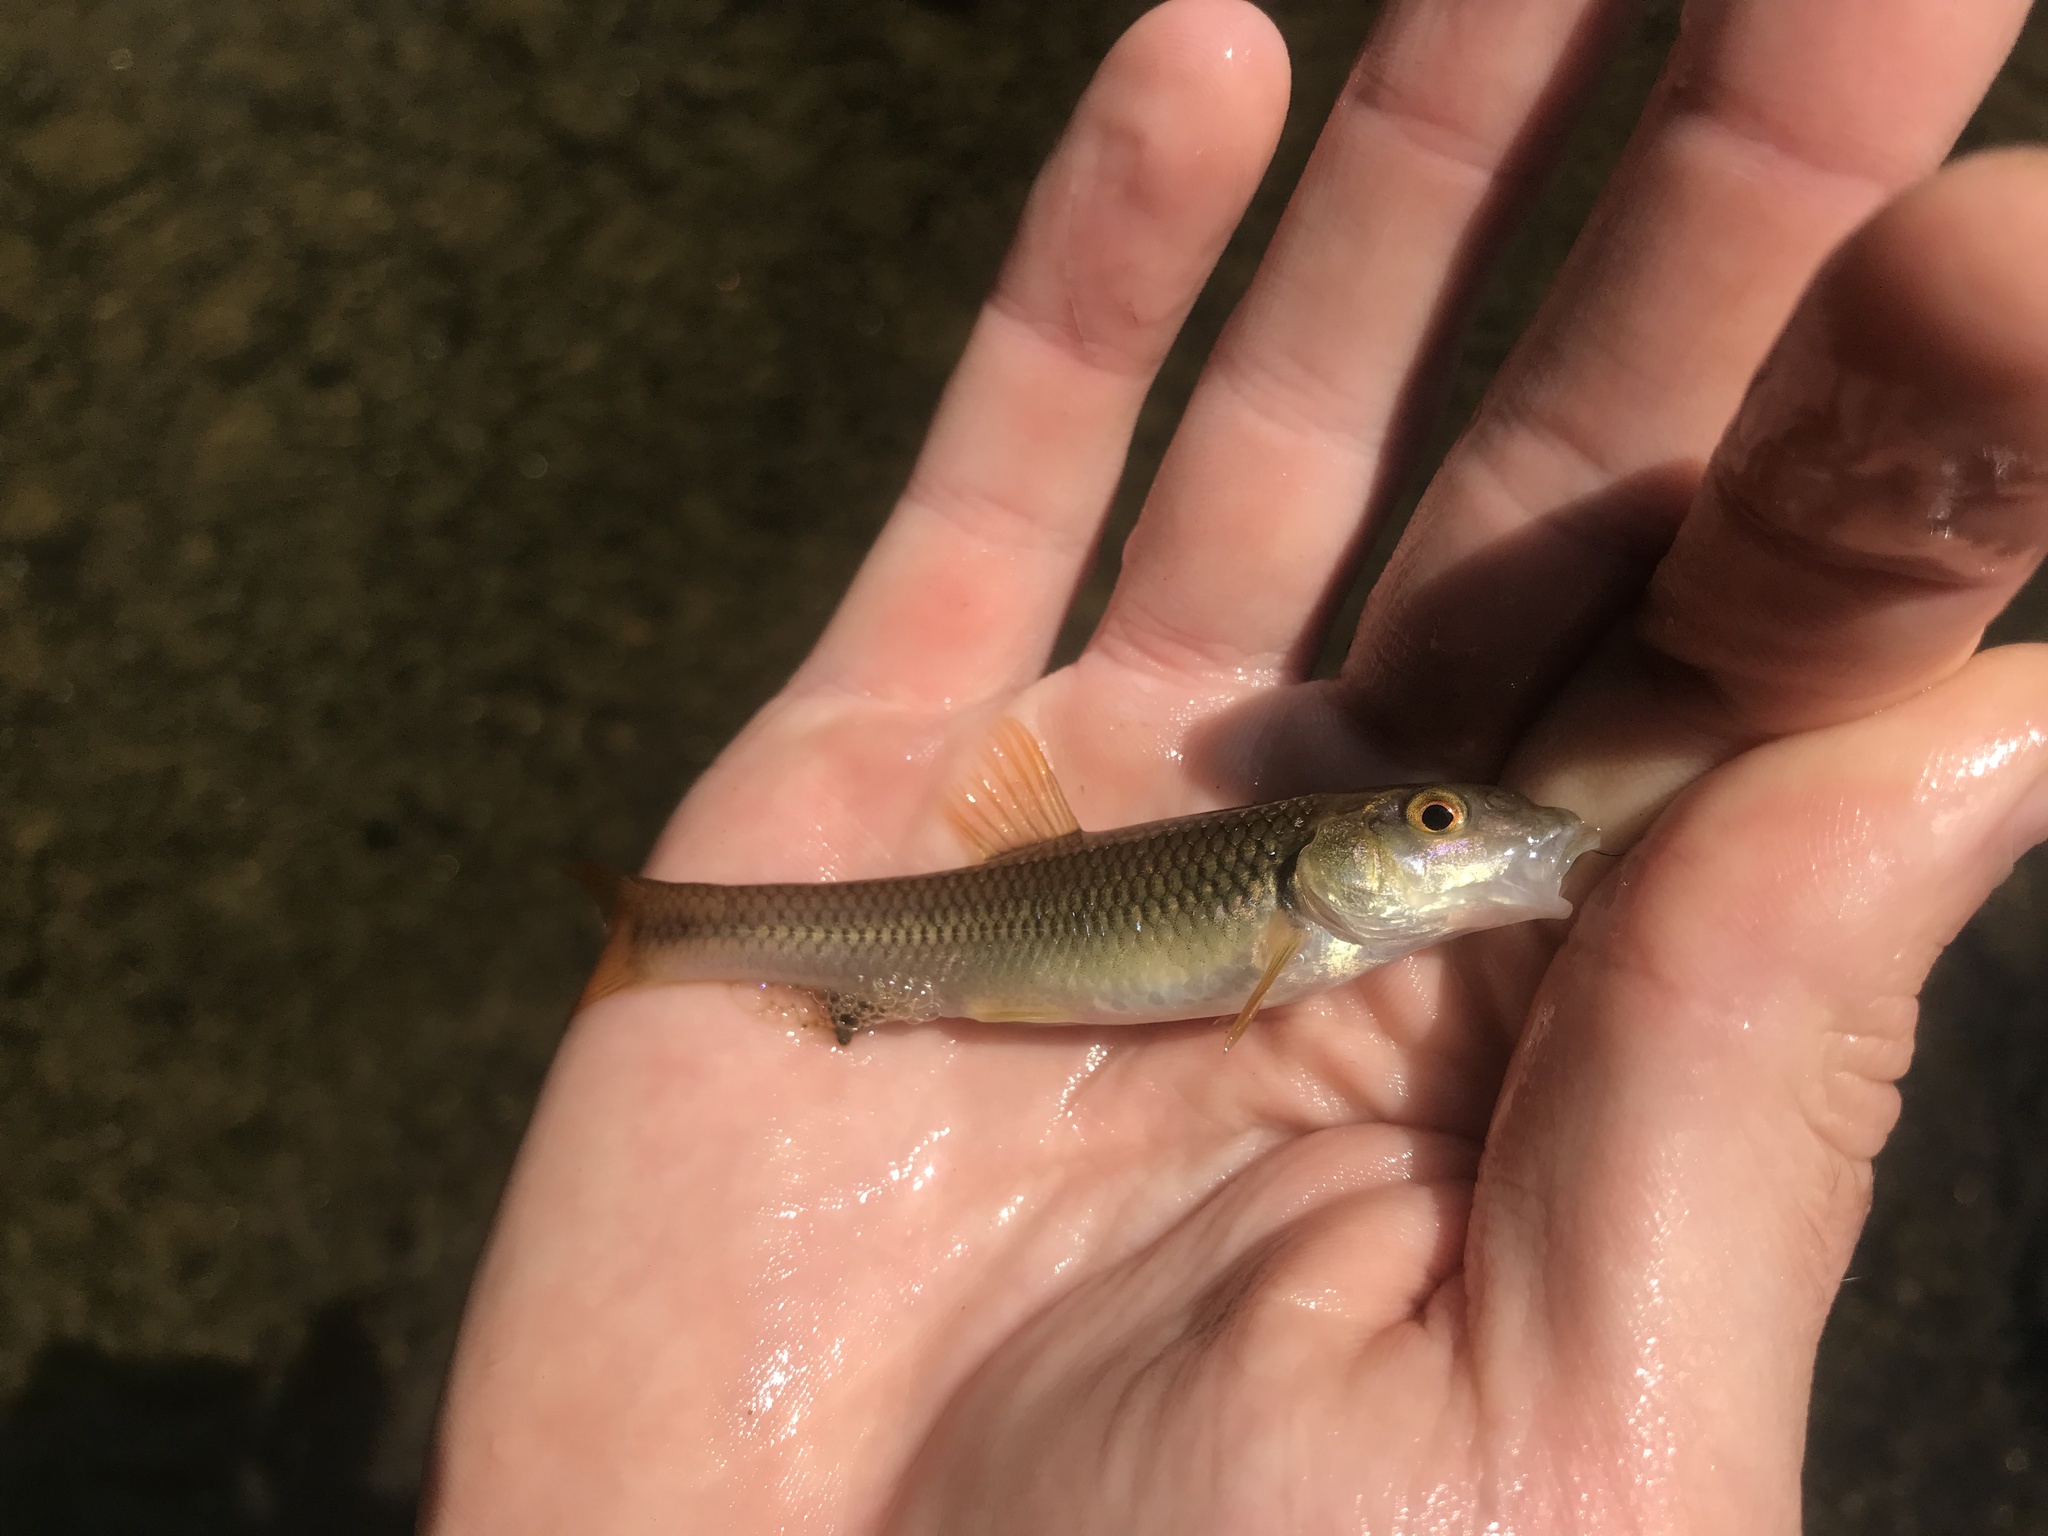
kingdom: Animalia
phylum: Chordata
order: Cypriniformes
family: Cyprinidae
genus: Nocomis
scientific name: Nocomis micropogon
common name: River chub
